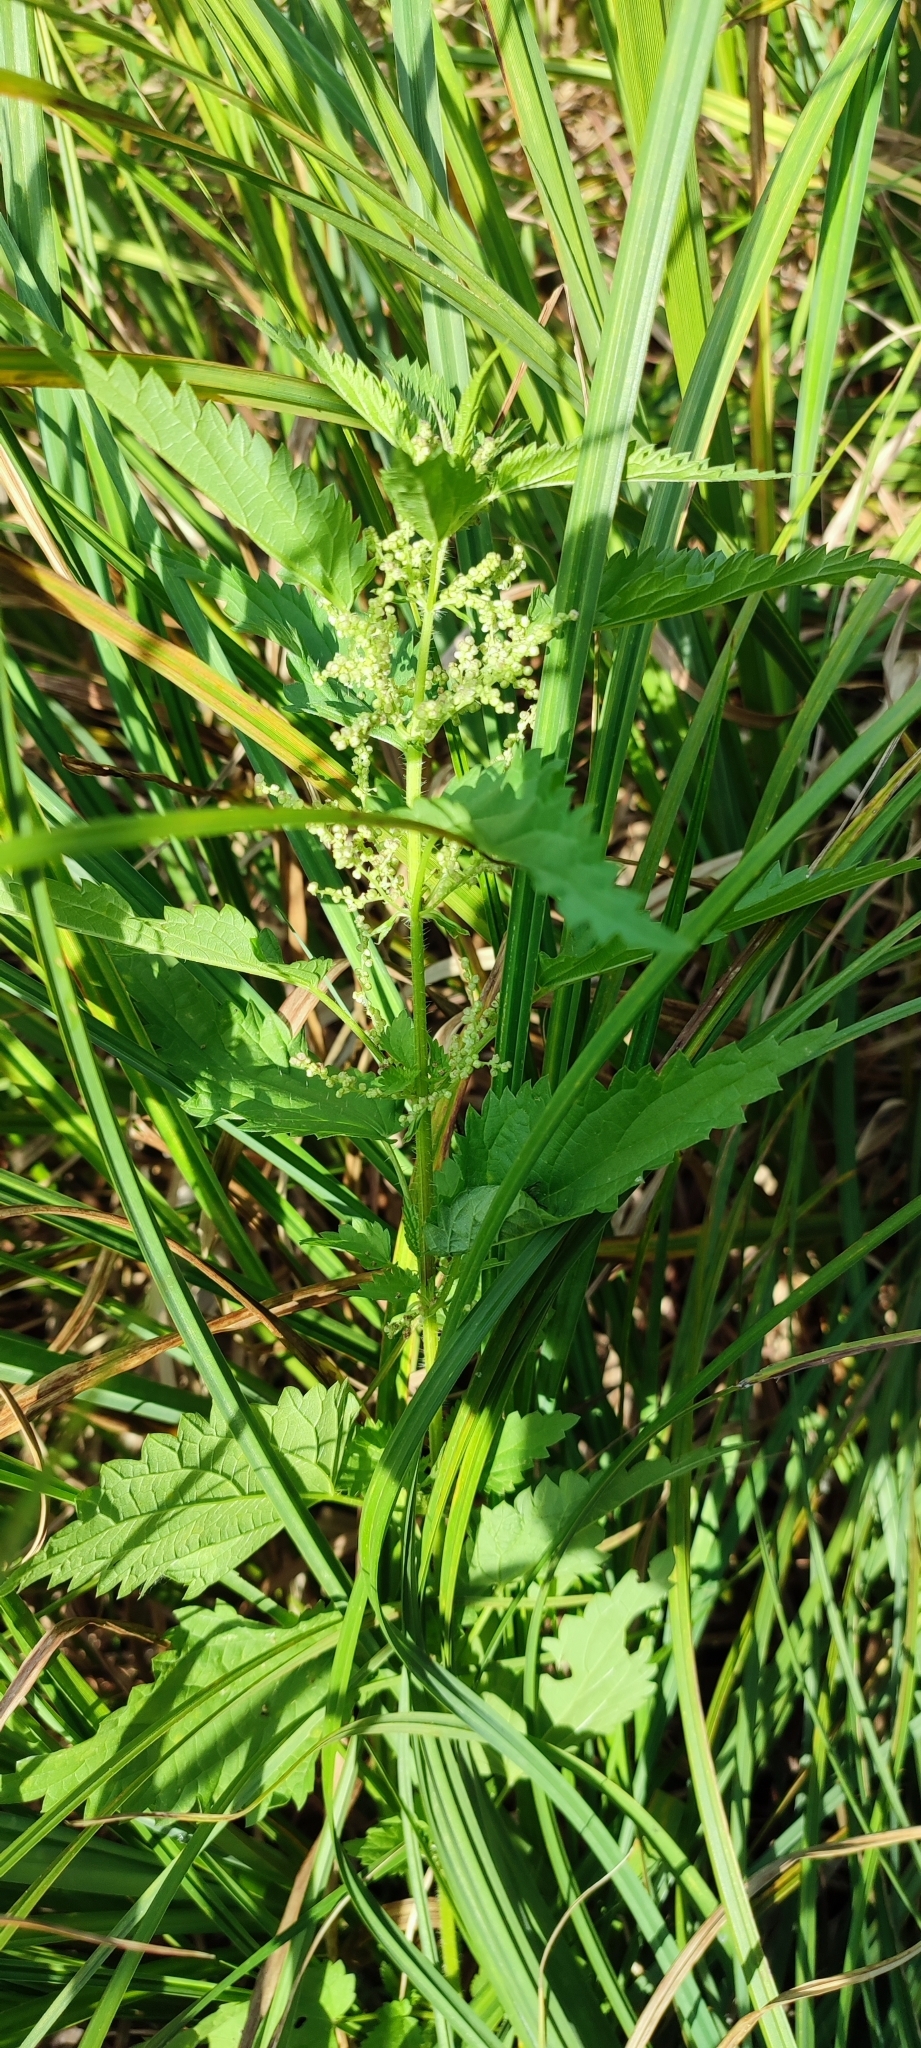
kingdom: Plantae
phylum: Tracheophyta
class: Magnoliopsida
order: Rosales
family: Urticaceae
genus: Urtica
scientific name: Urtica dioica
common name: Common nettle
